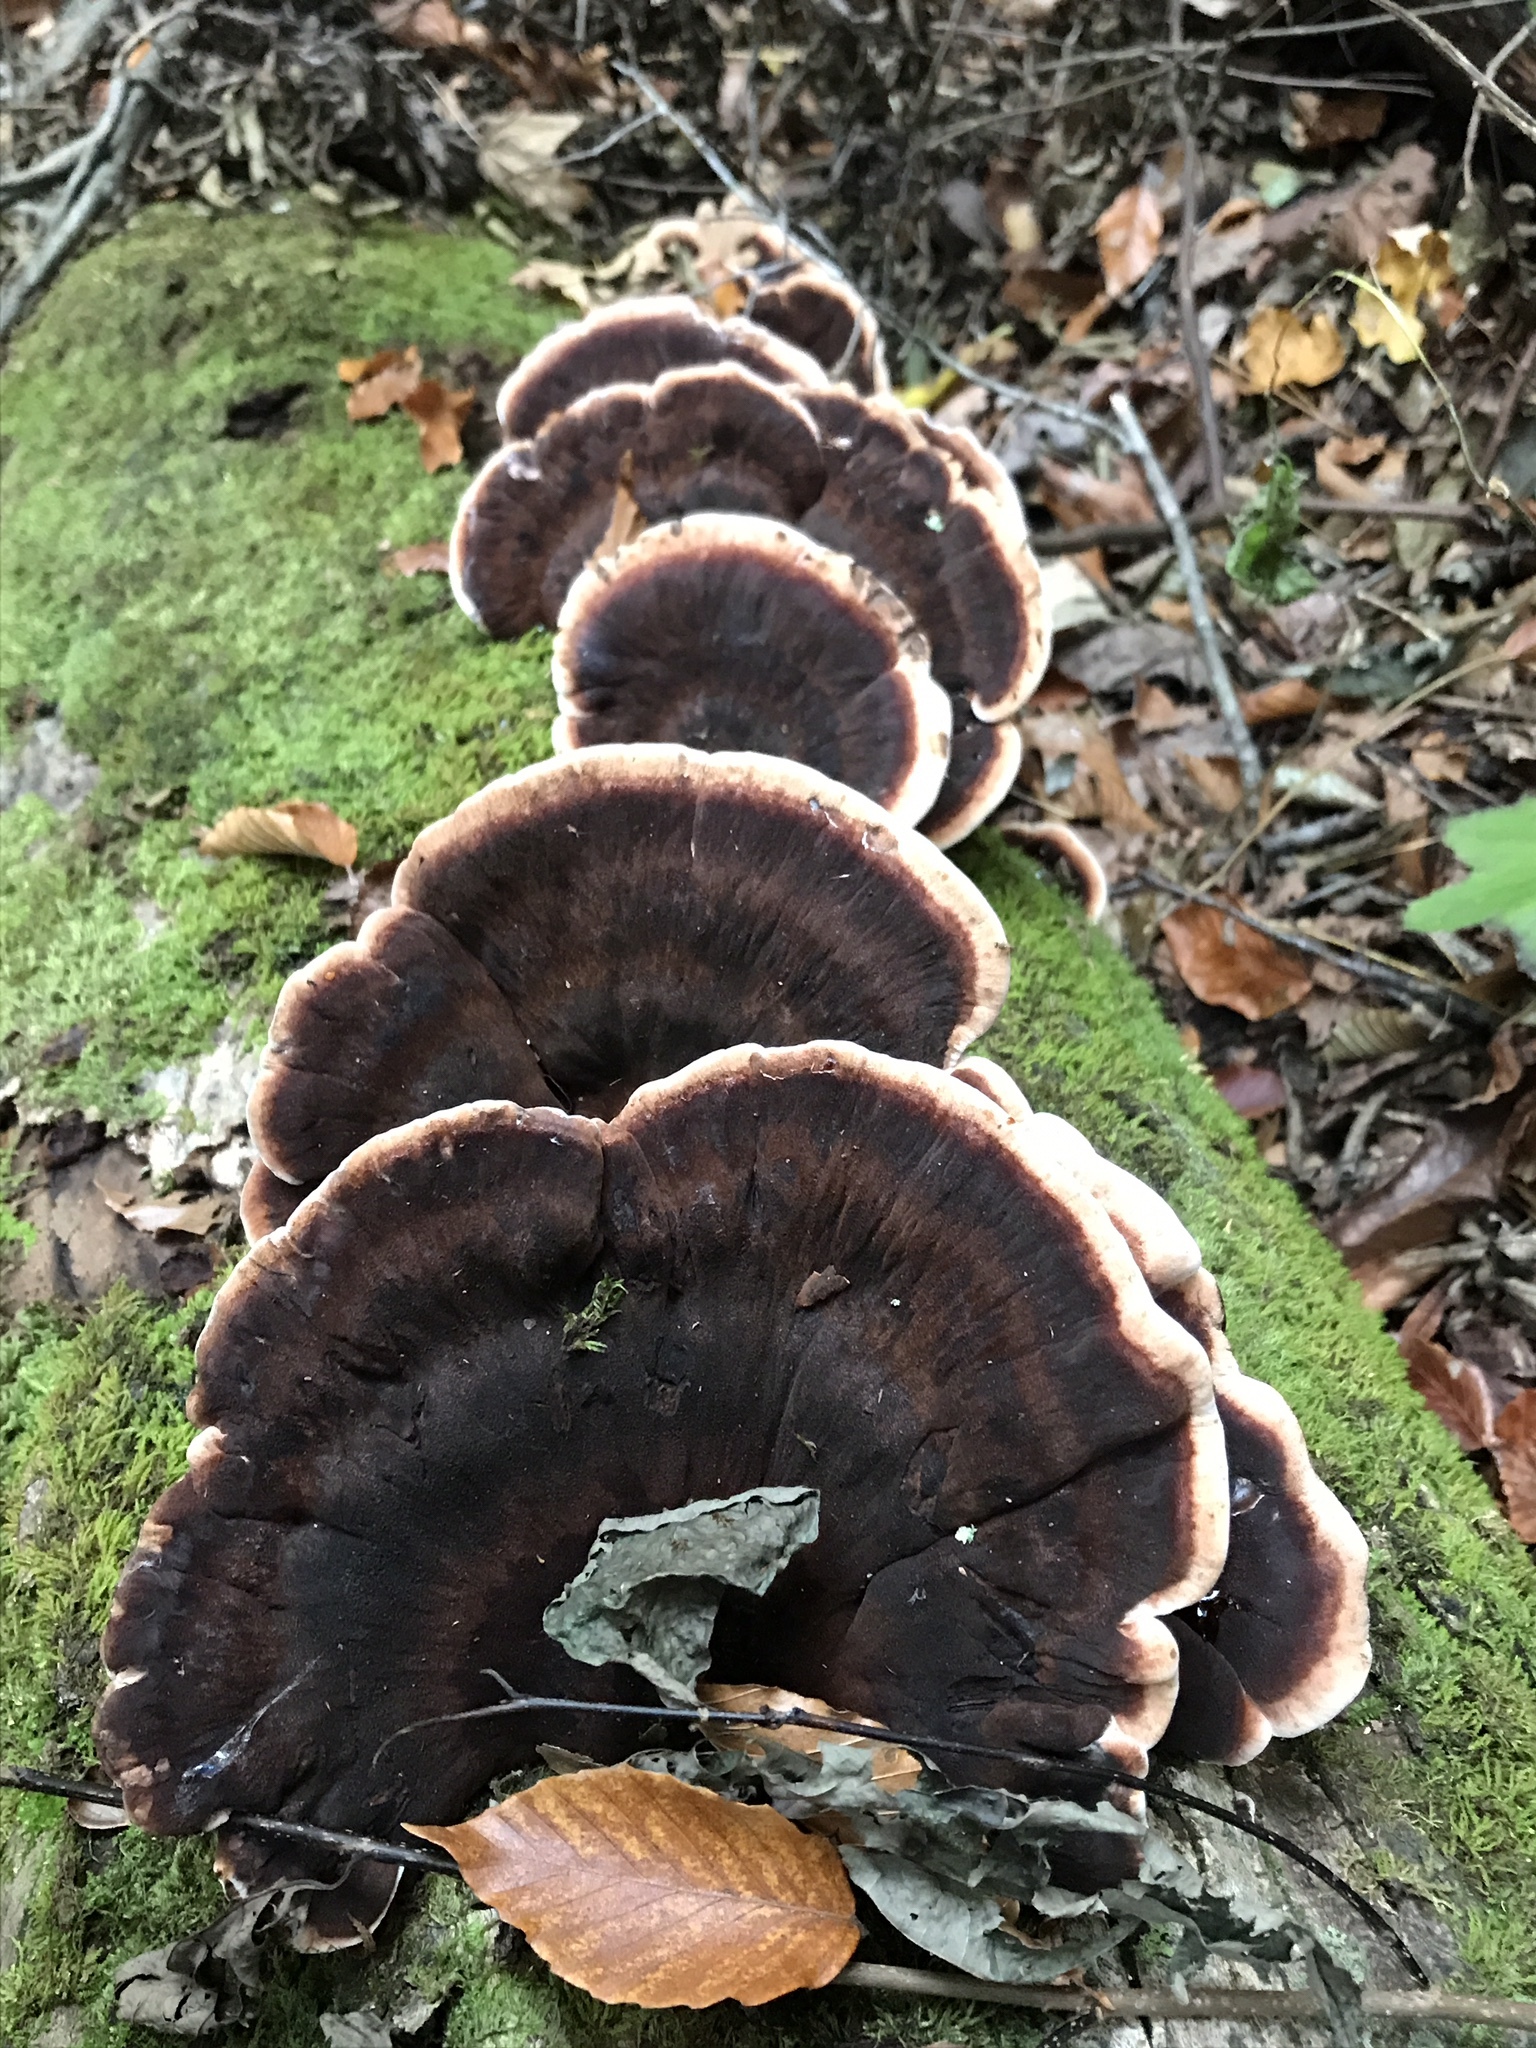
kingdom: Fungi
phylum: Basidiomycota
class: Agaricomycetes
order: Polyporales
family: Ischnodermataceae
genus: Ischnoderma
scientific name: Ischnoderma resinosum
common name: Resinous polypore
